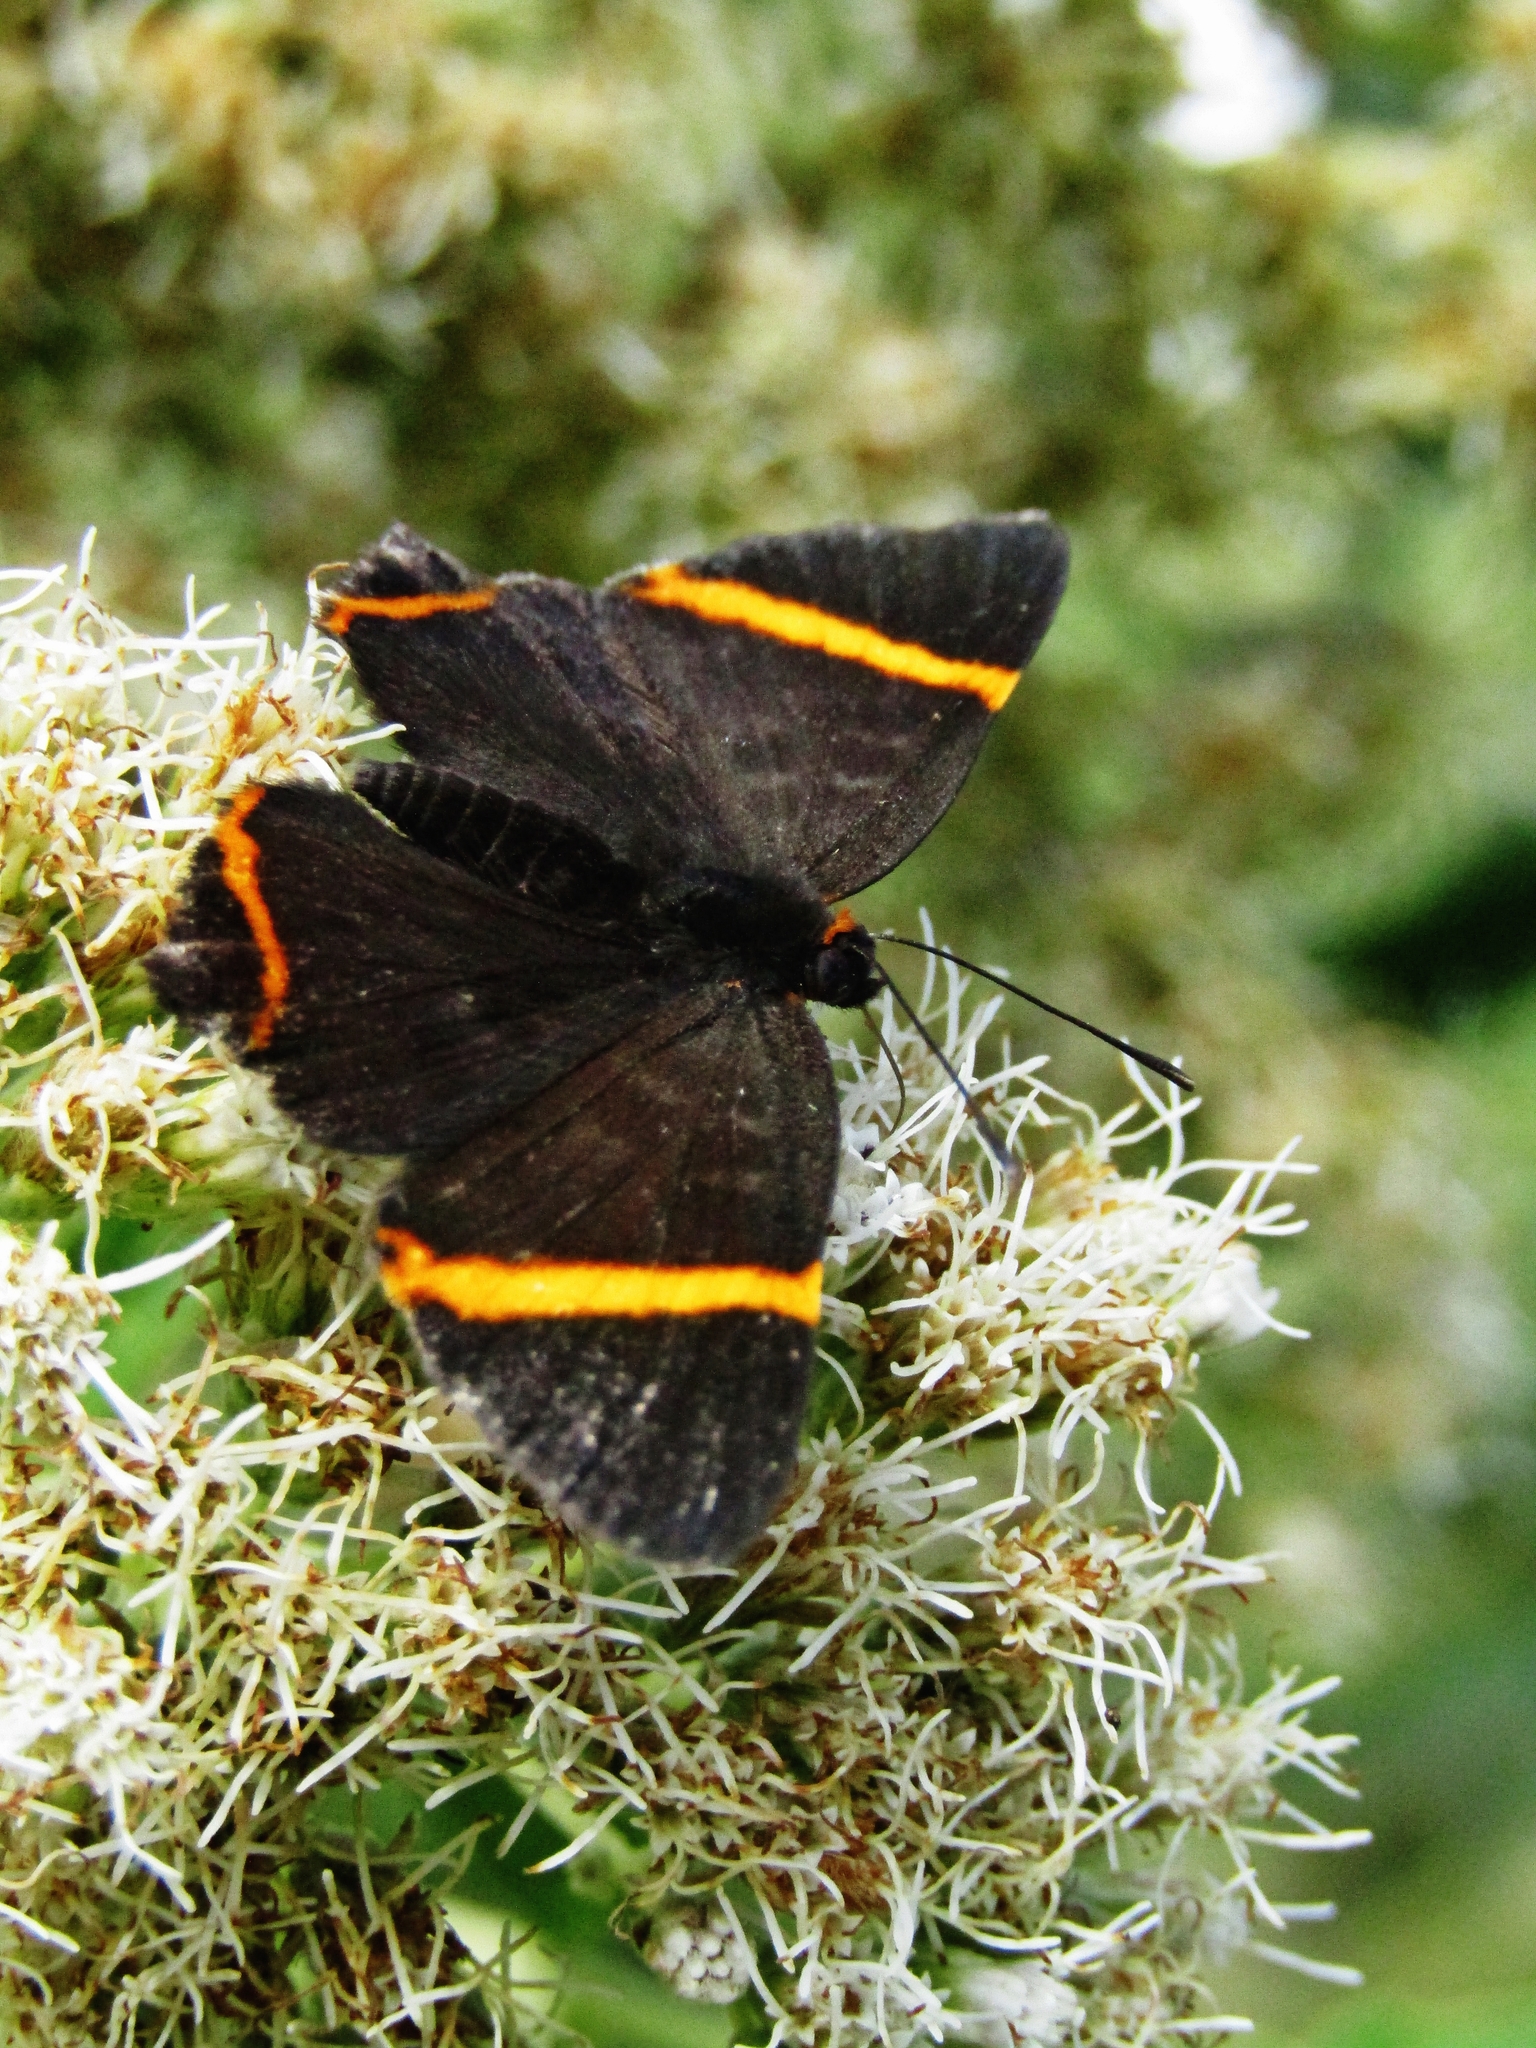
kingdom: Animalia
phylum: Arthropoda
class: Insecta
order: Lepidoptera
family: Riodinidae
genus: Riodina
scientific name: Riodina lysippoides
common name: Little dancer metalmark
